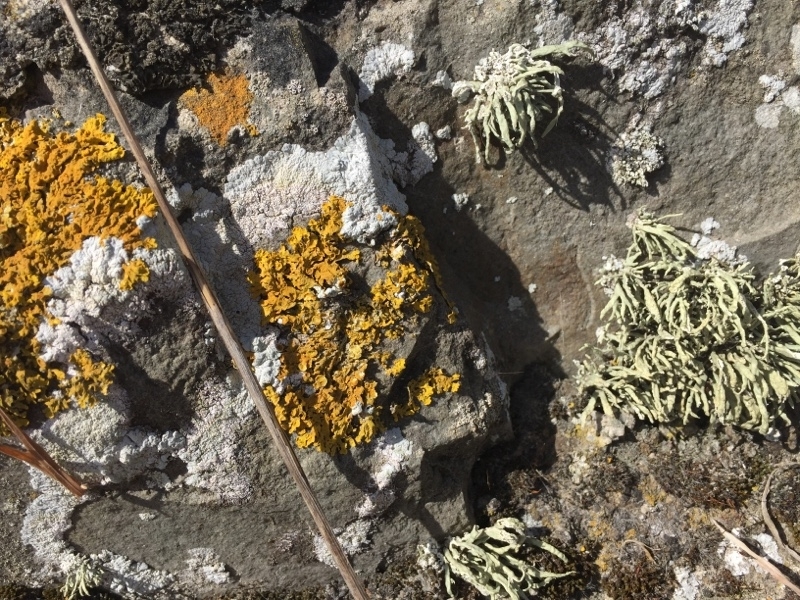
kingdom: Fungi
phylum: Ascomycota
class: Lecanoromycetes
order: Teloschistales
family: Teloschistaceae
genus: Xanthoria
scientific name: Xanthoria parietina
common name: Common orange lichen
